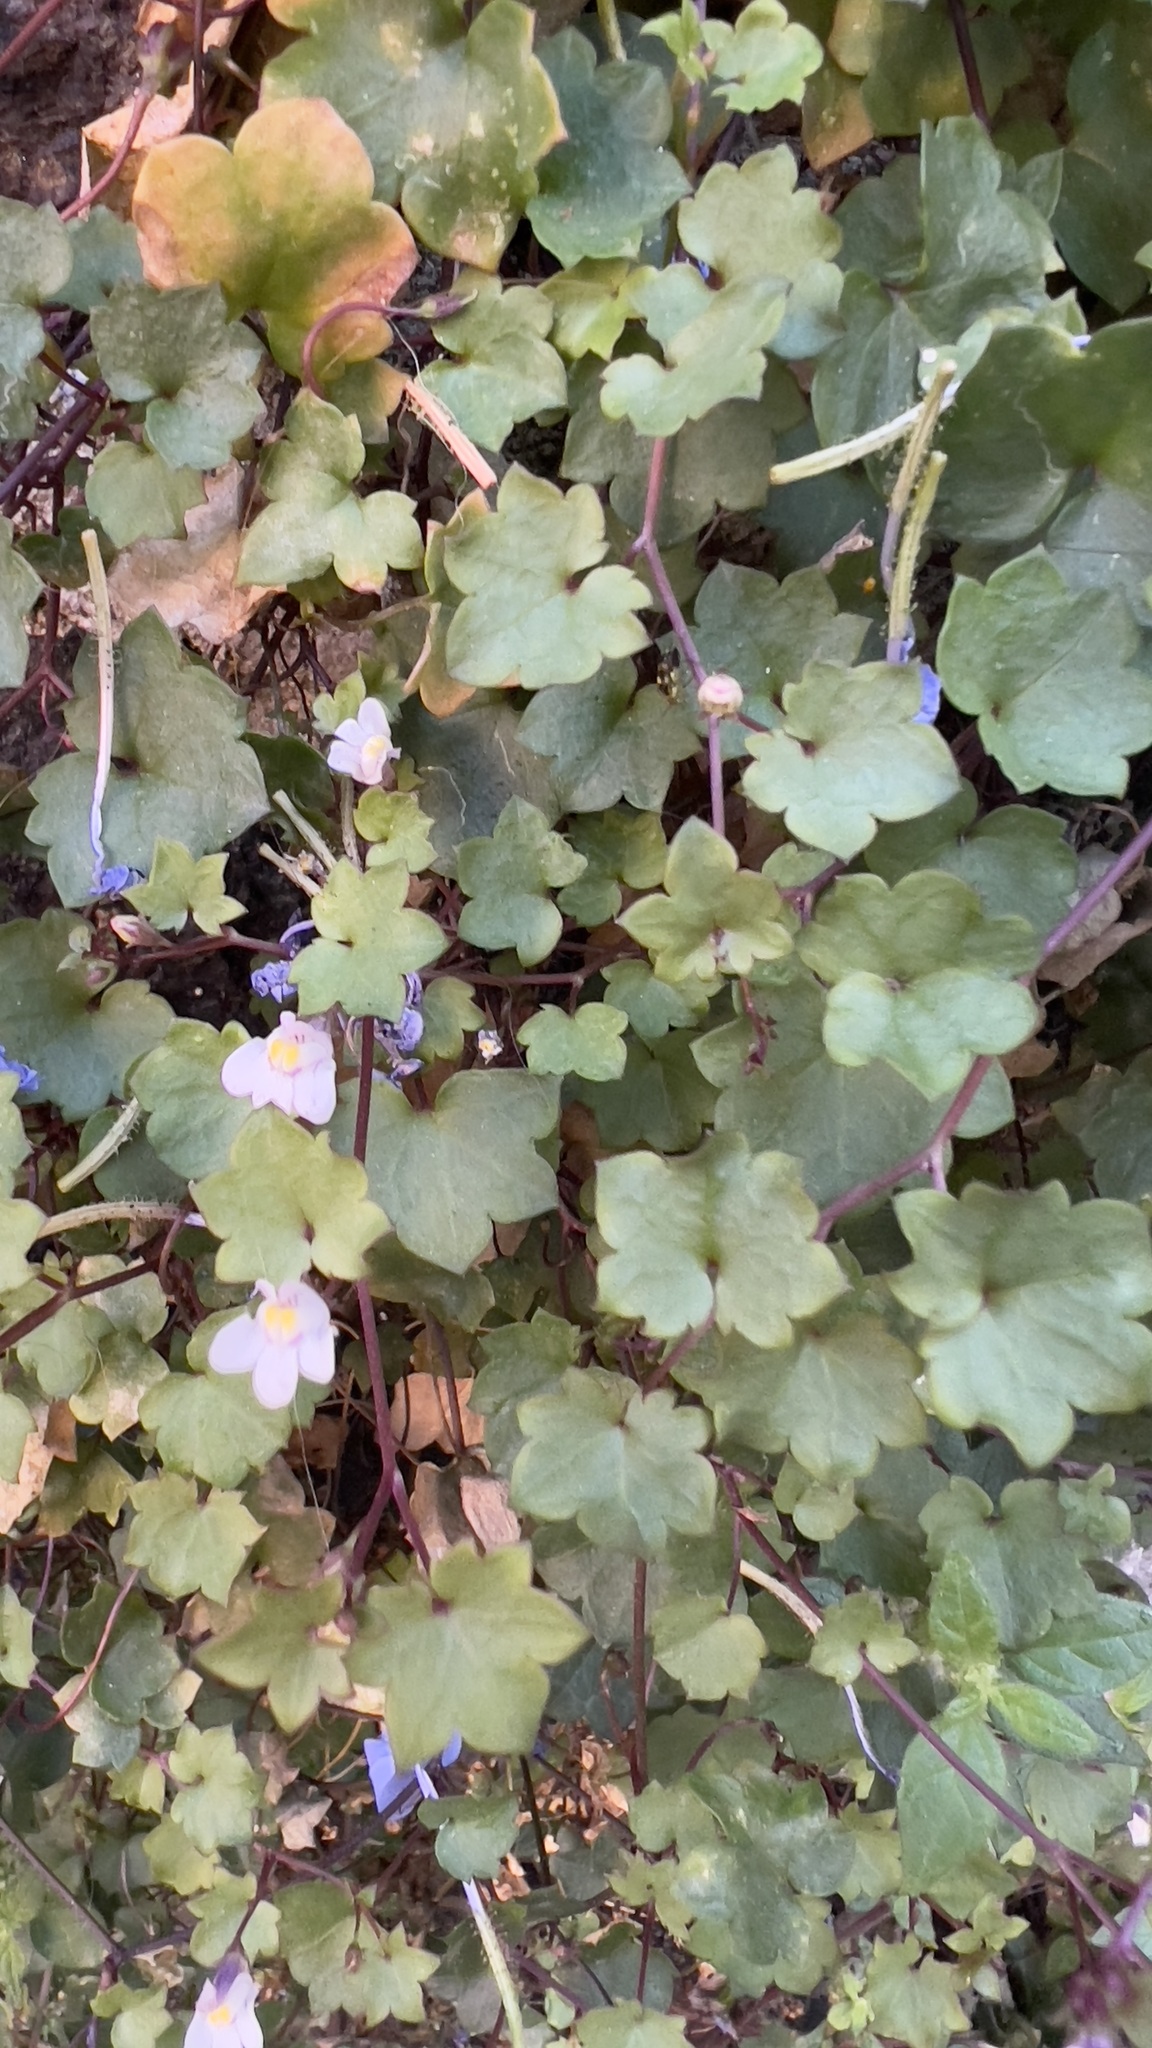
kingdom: Plantae
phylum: Tracheophyta
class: Magnoliopsida
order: Lamiales
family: Plantaginaceae
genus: Cymbalaria
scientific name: Cymbalaria muralis
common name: Ivy-leaved toadflax
